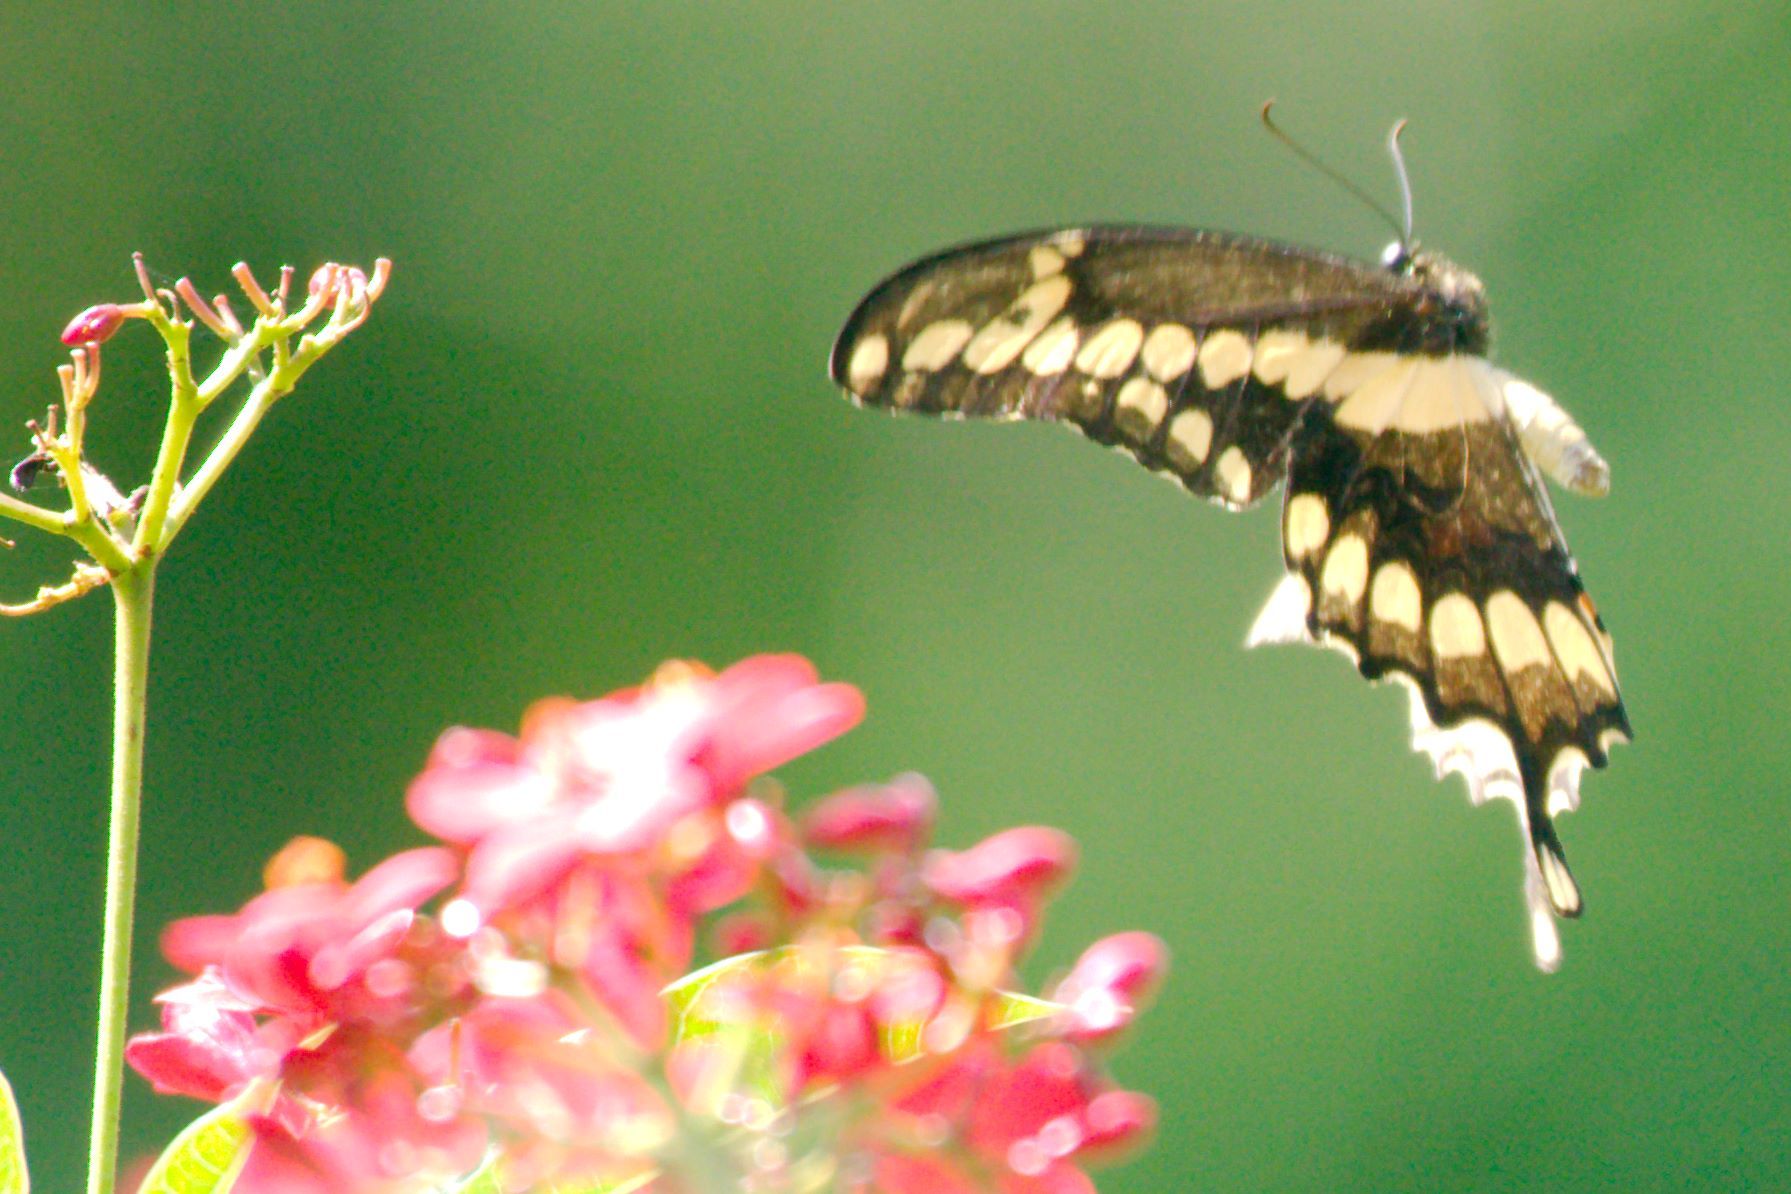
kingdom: Animalia
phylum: Arthropoda
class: Insecta
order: Lepidoptera
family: Papilionidae
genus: Papilio
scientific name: Papilio cresphontes
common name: Giant swallowtail
